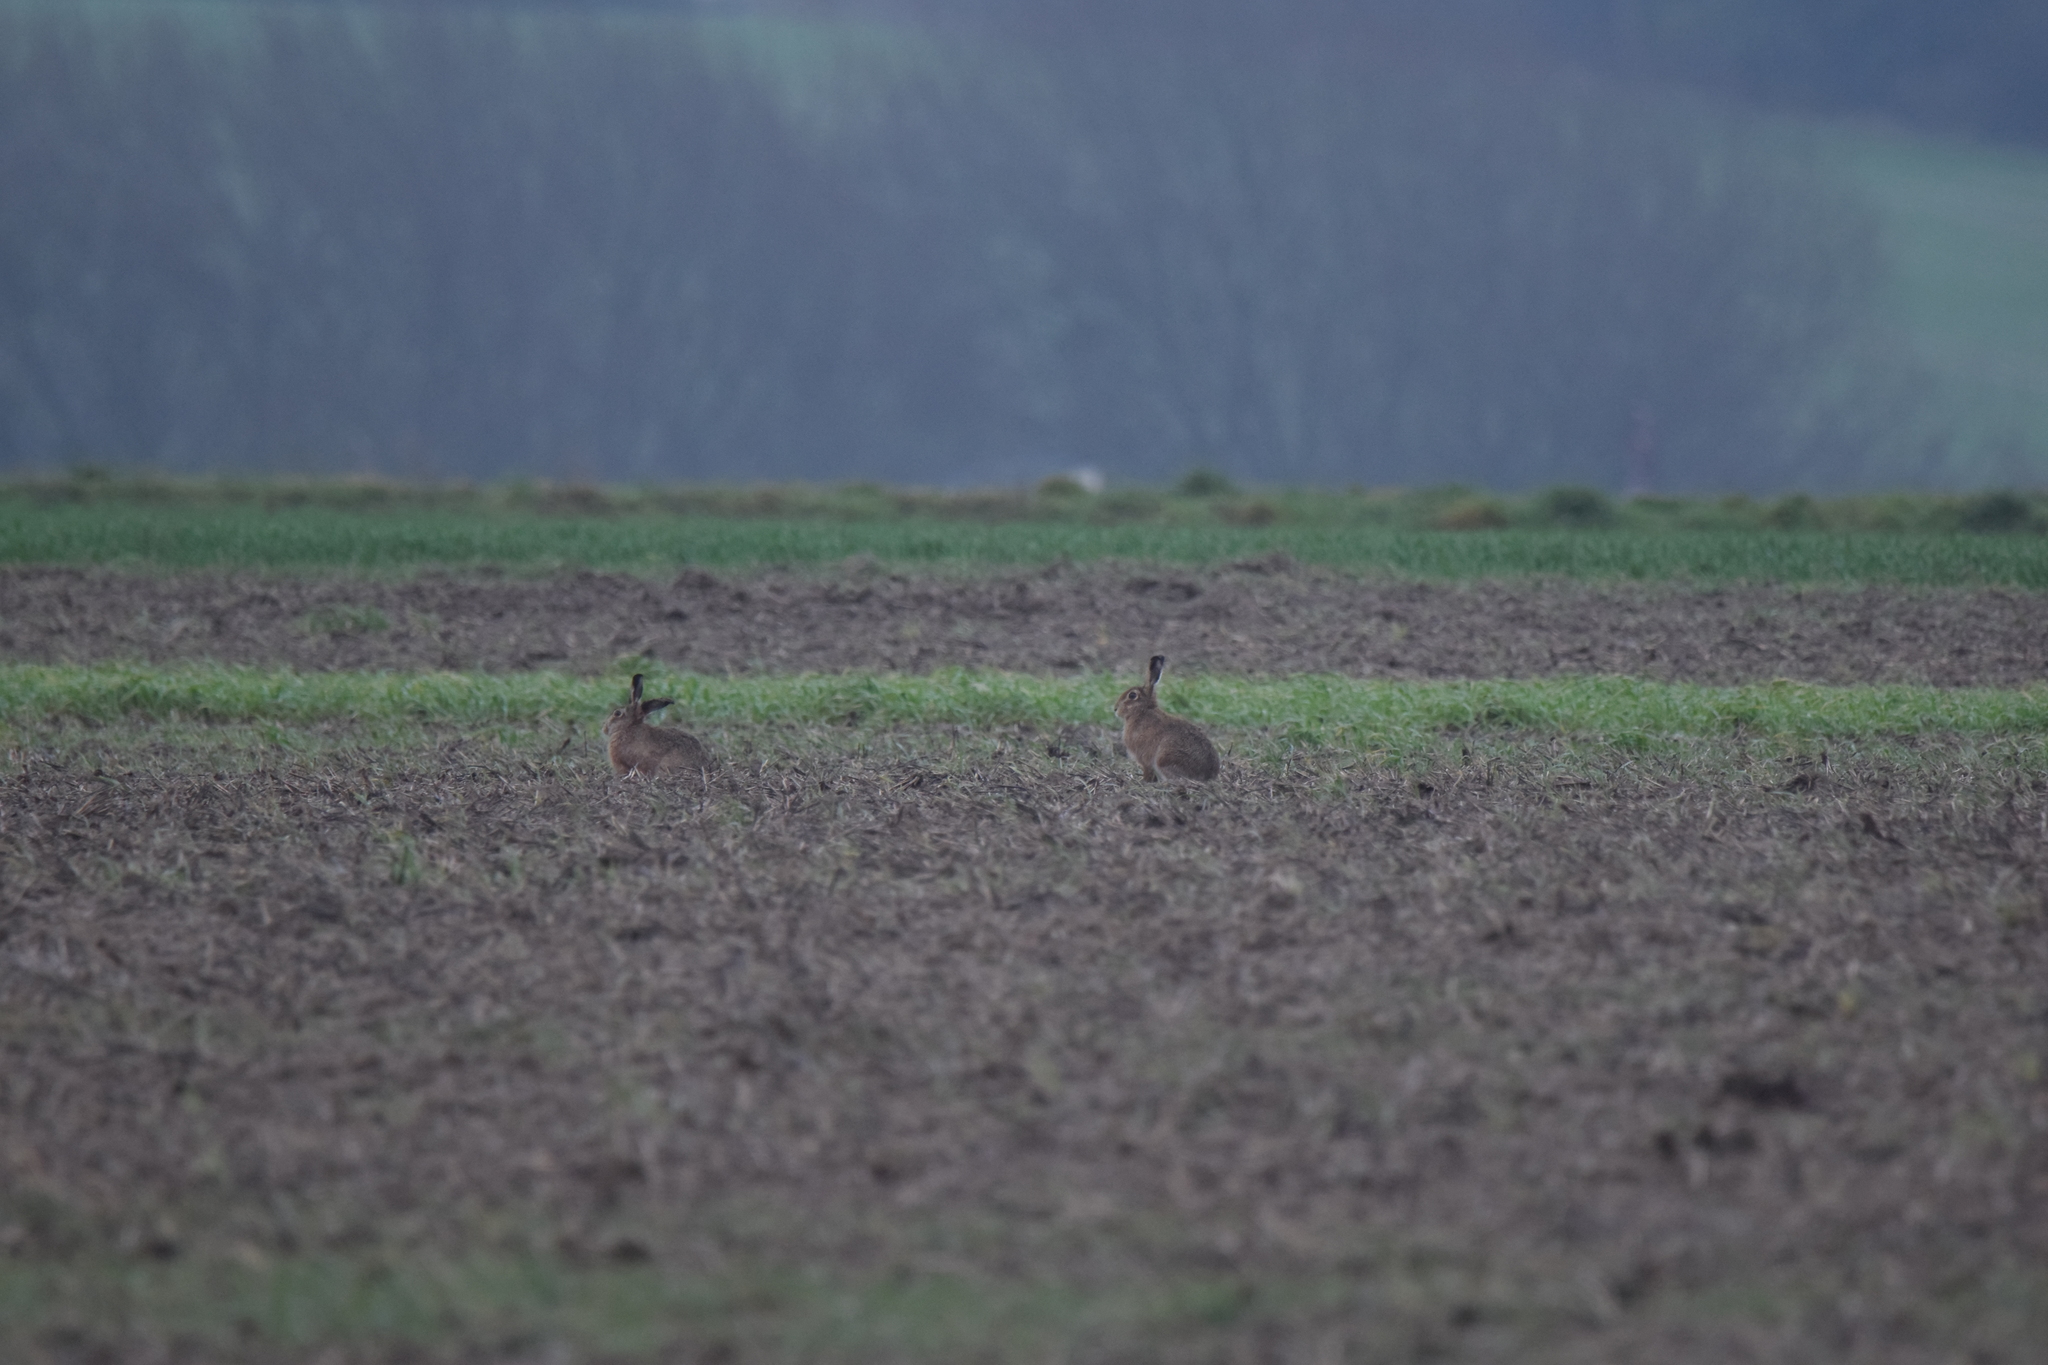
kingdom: Animalia
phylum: Chordata
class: Mammalia
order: Lagomorpha
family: Leporidae
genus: Lepus
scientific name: Lepus europaeus
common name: European hare
